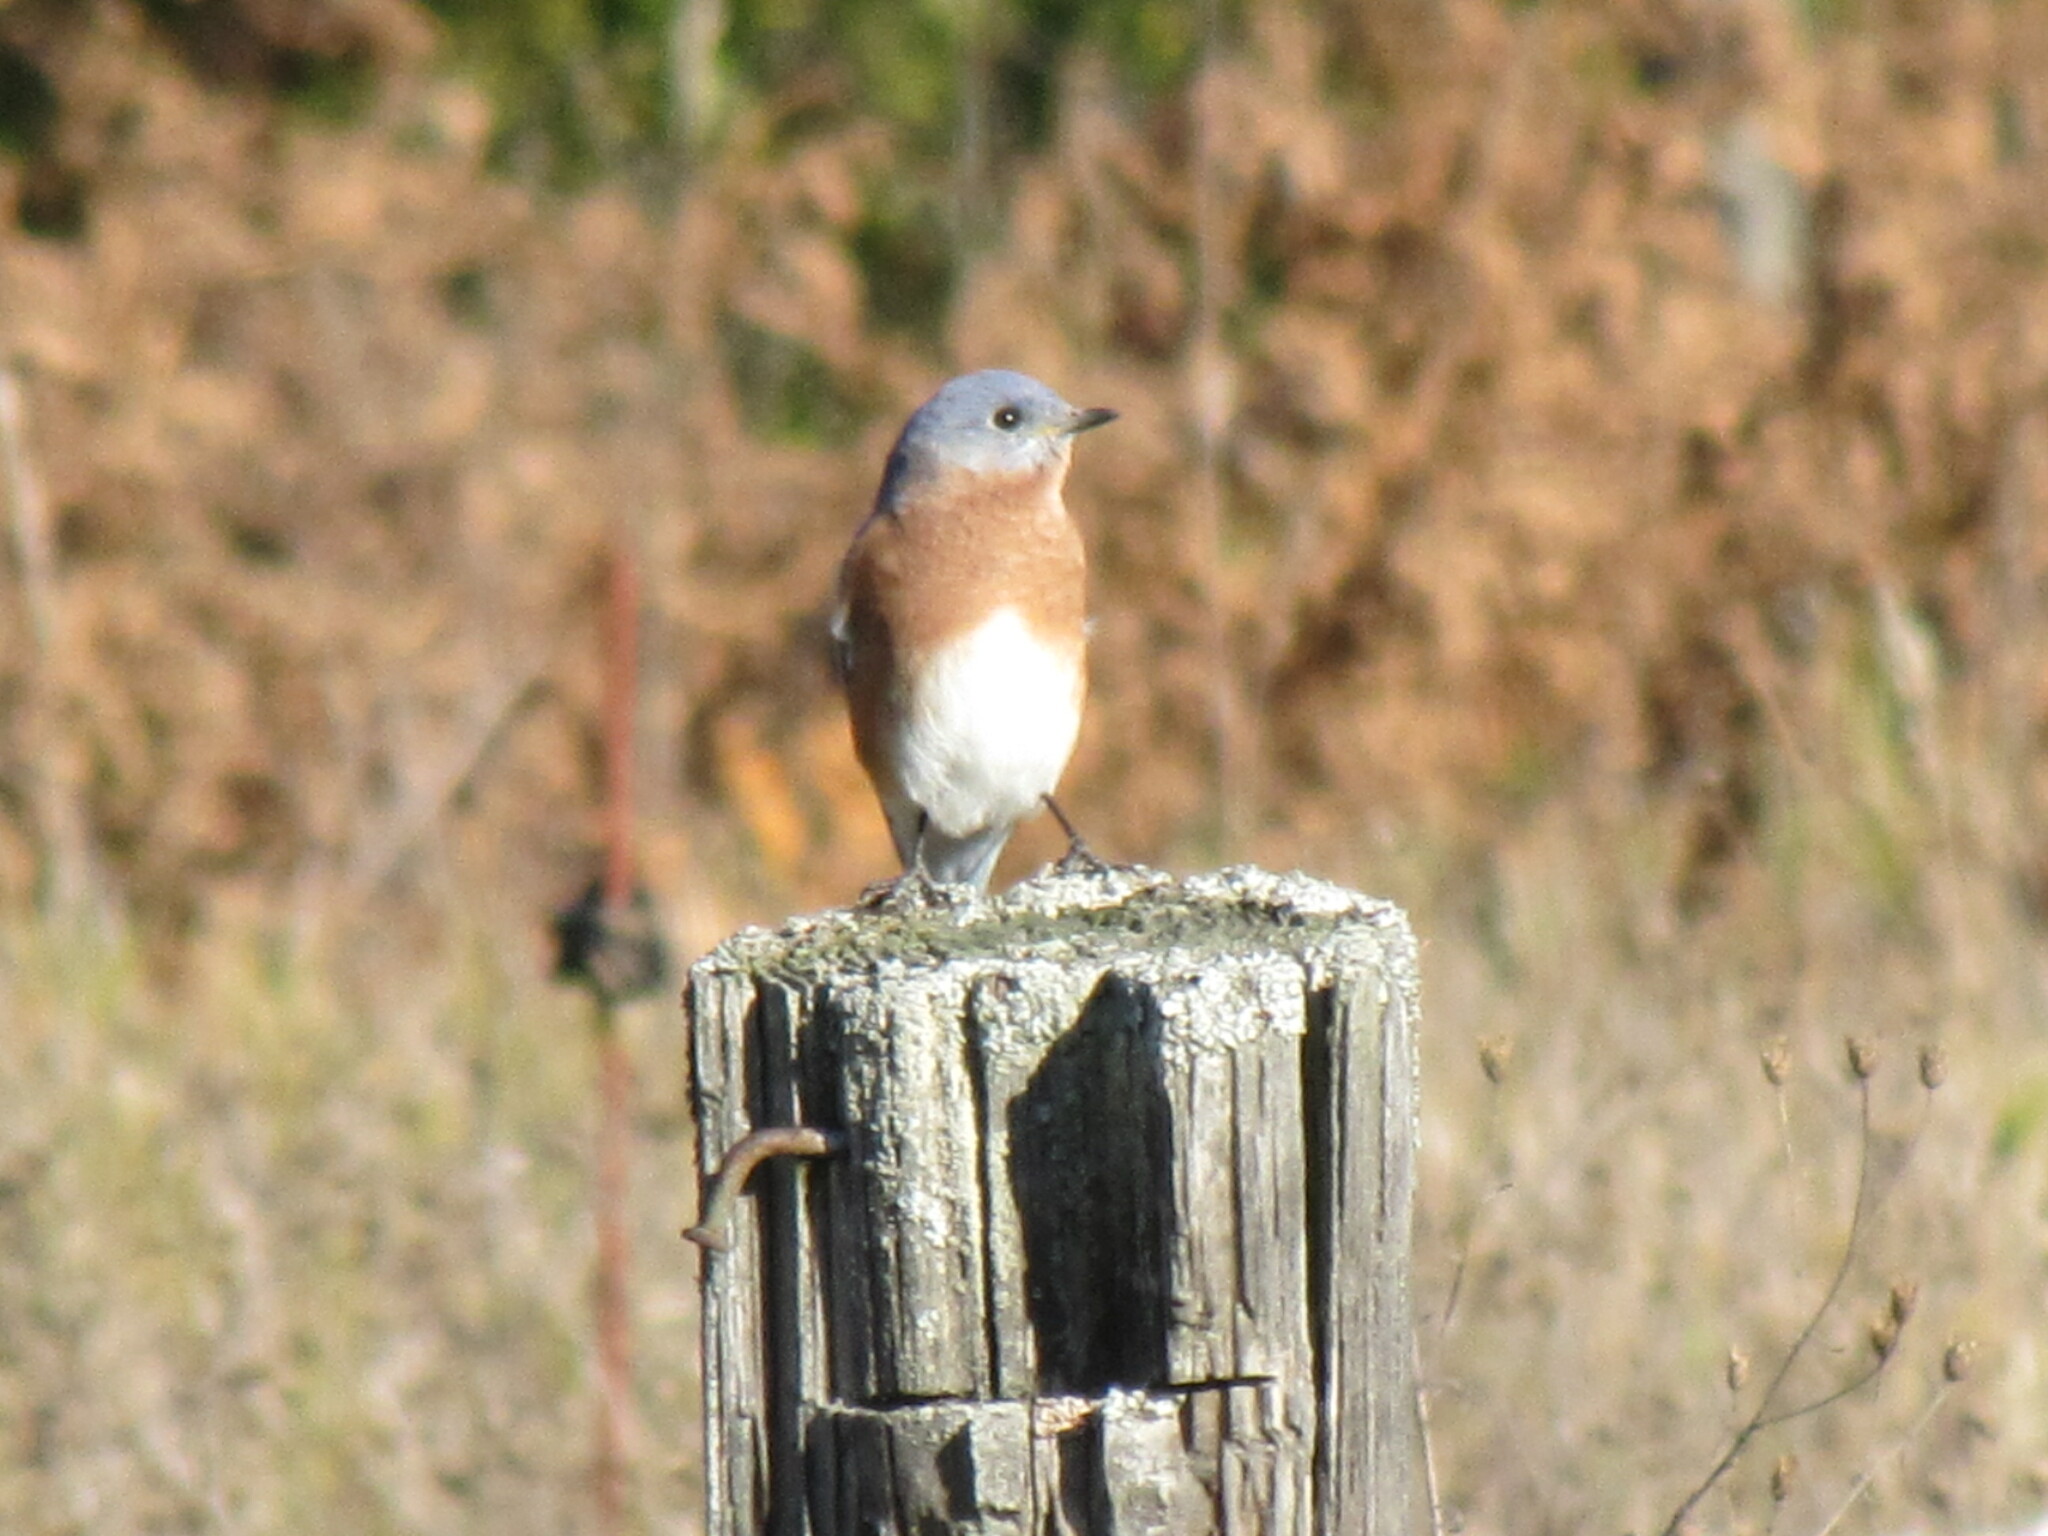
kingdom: Animalia
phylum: Chordata
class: Aves
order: Passeriformes
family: Turdidae
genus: Sialia
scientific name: Sialia sialis
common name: Eastern bluebird
